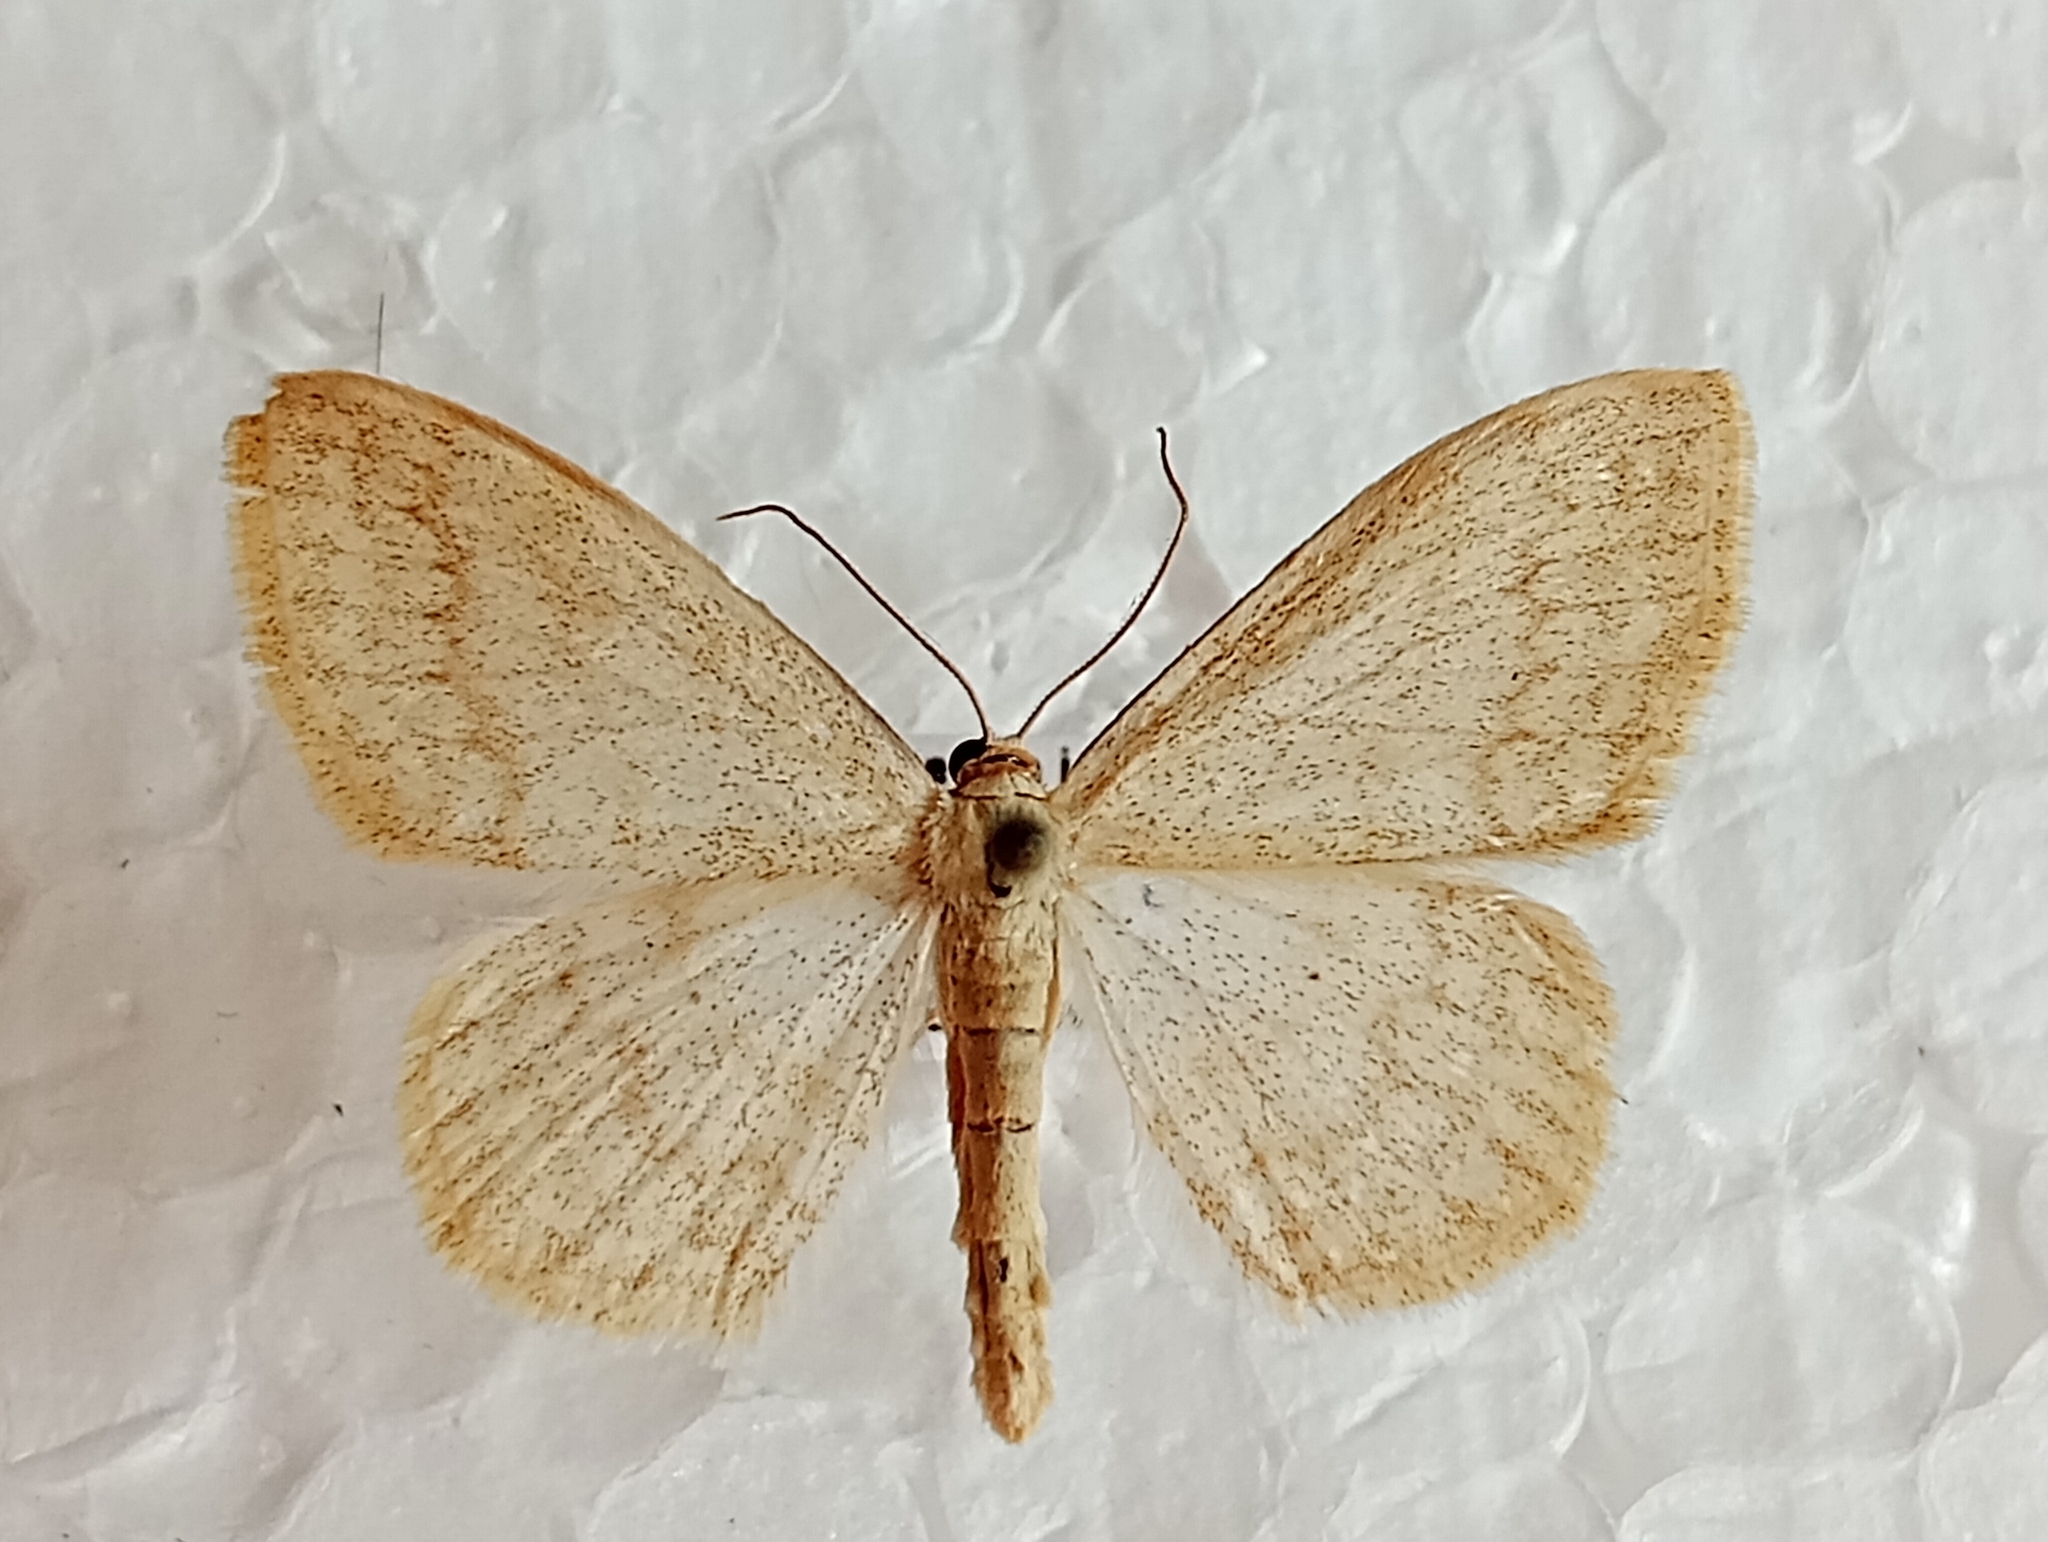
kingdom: Animalia
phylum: Arthropoda
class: Insecta
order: Lepidoptera
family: Geometridae
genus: Scopula
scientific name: Scopula floslactata
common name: Cream wave
